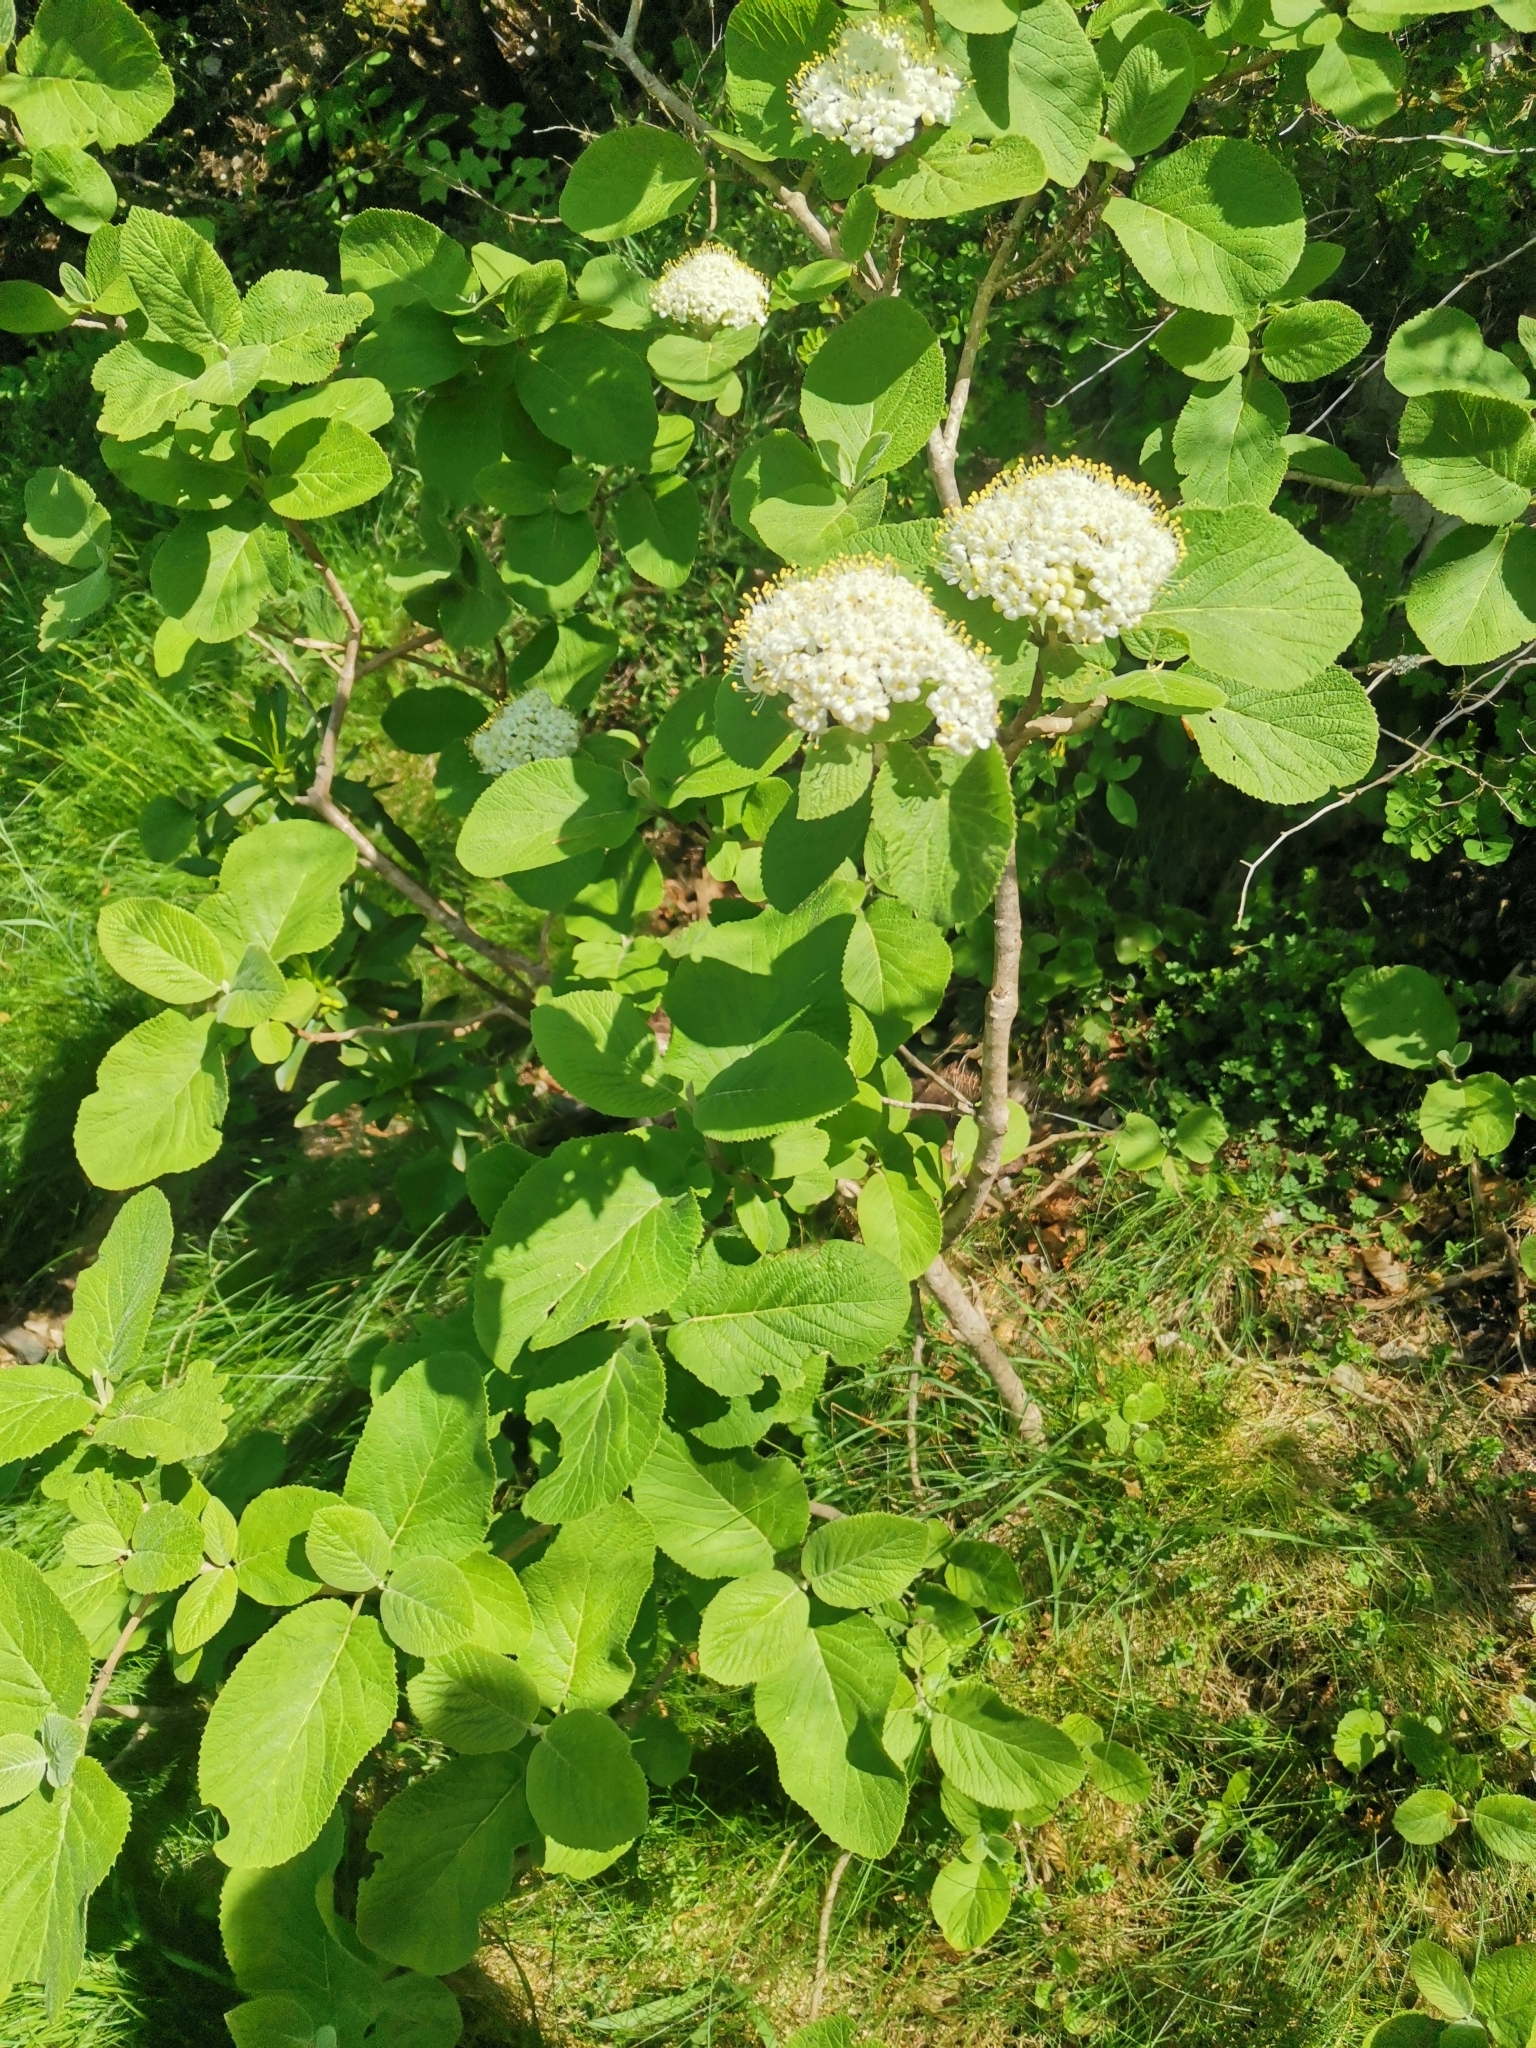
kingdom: Plantae
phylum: Tracheophyta
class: Magnoliopsida
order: Dipsacales
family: Viburnaceae
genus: Viburnum
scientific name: Viburnum lantana
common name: Wayfaring tree
